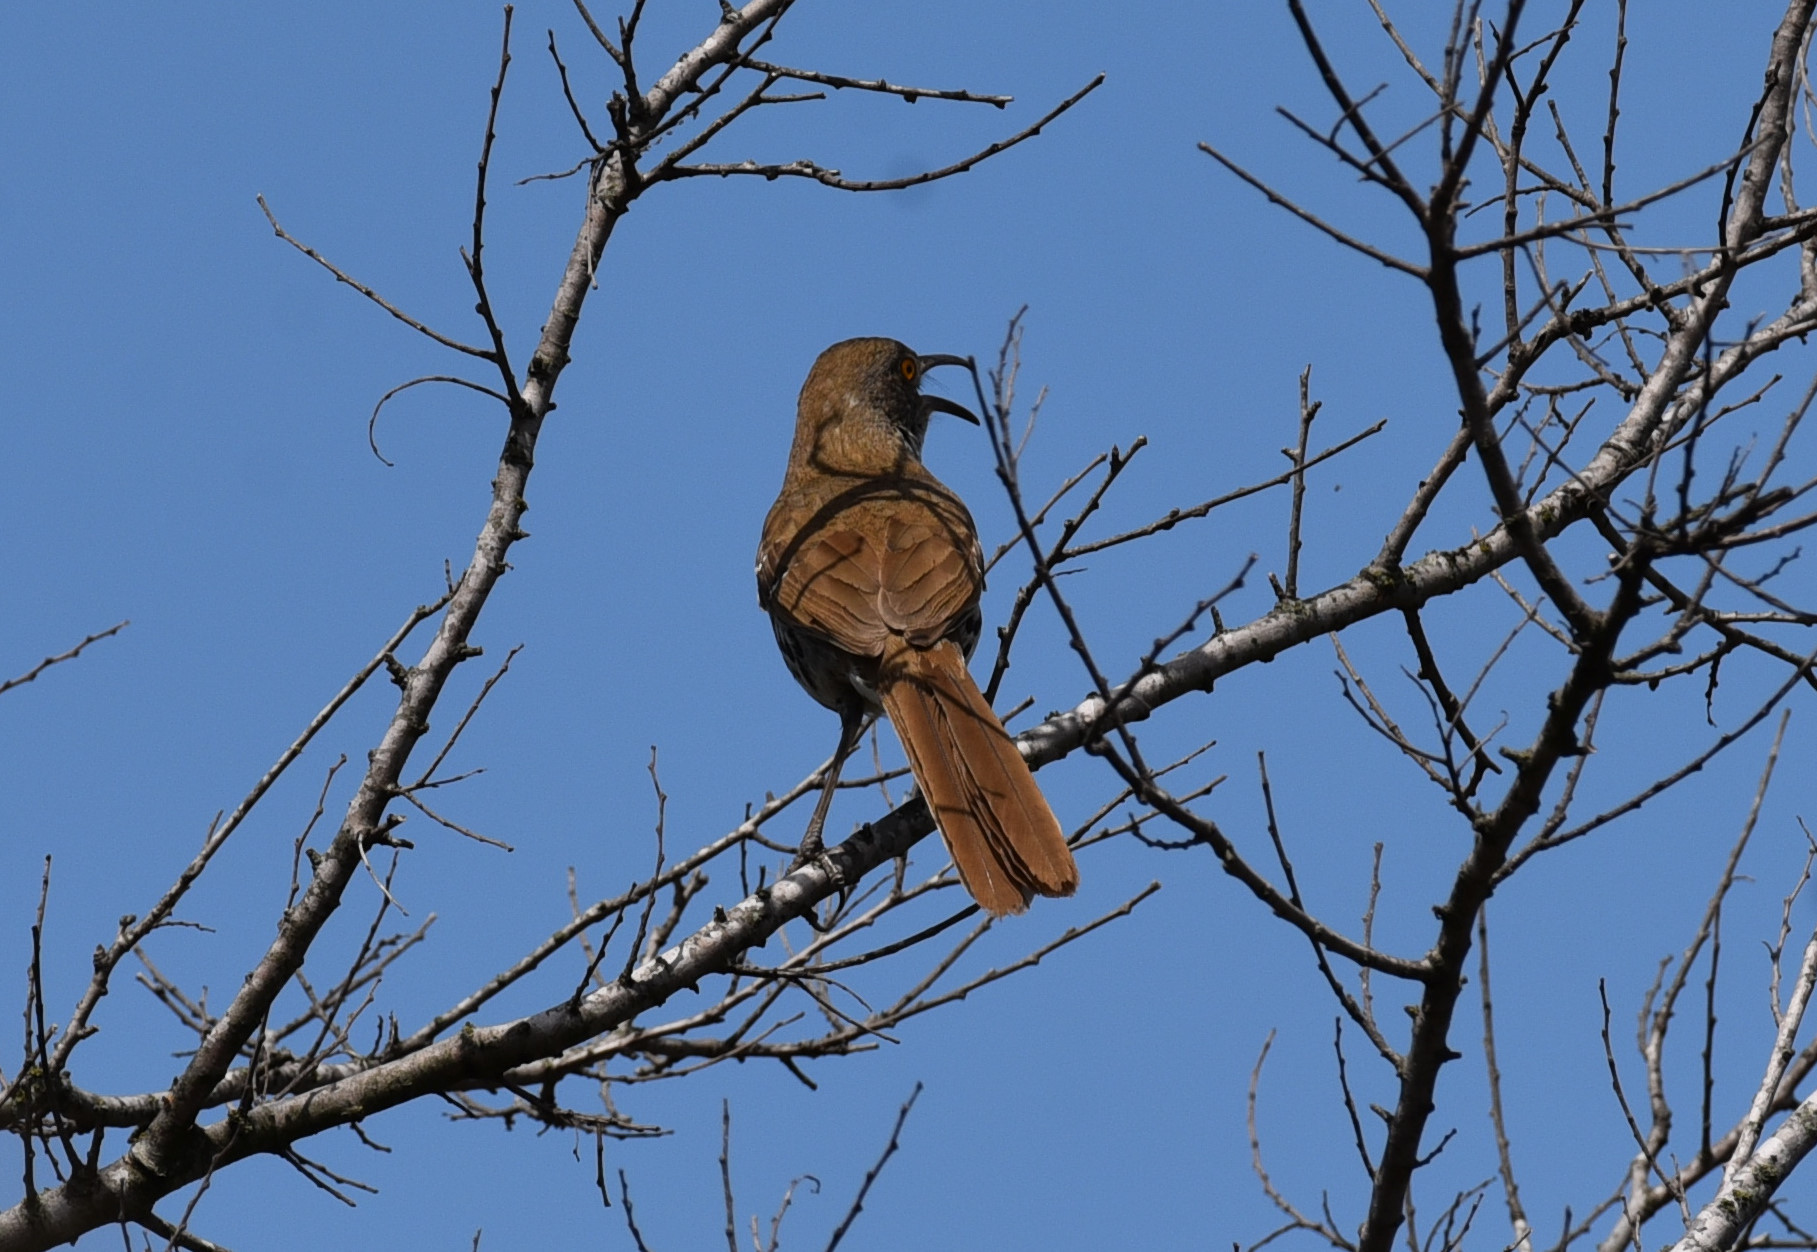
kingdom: Animalia
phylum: Chordata
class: Aves
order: Passeriformes
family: Mimidae
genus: Toxostoma
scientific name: Toxostoma longirostre
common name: Long-billed thrasher
